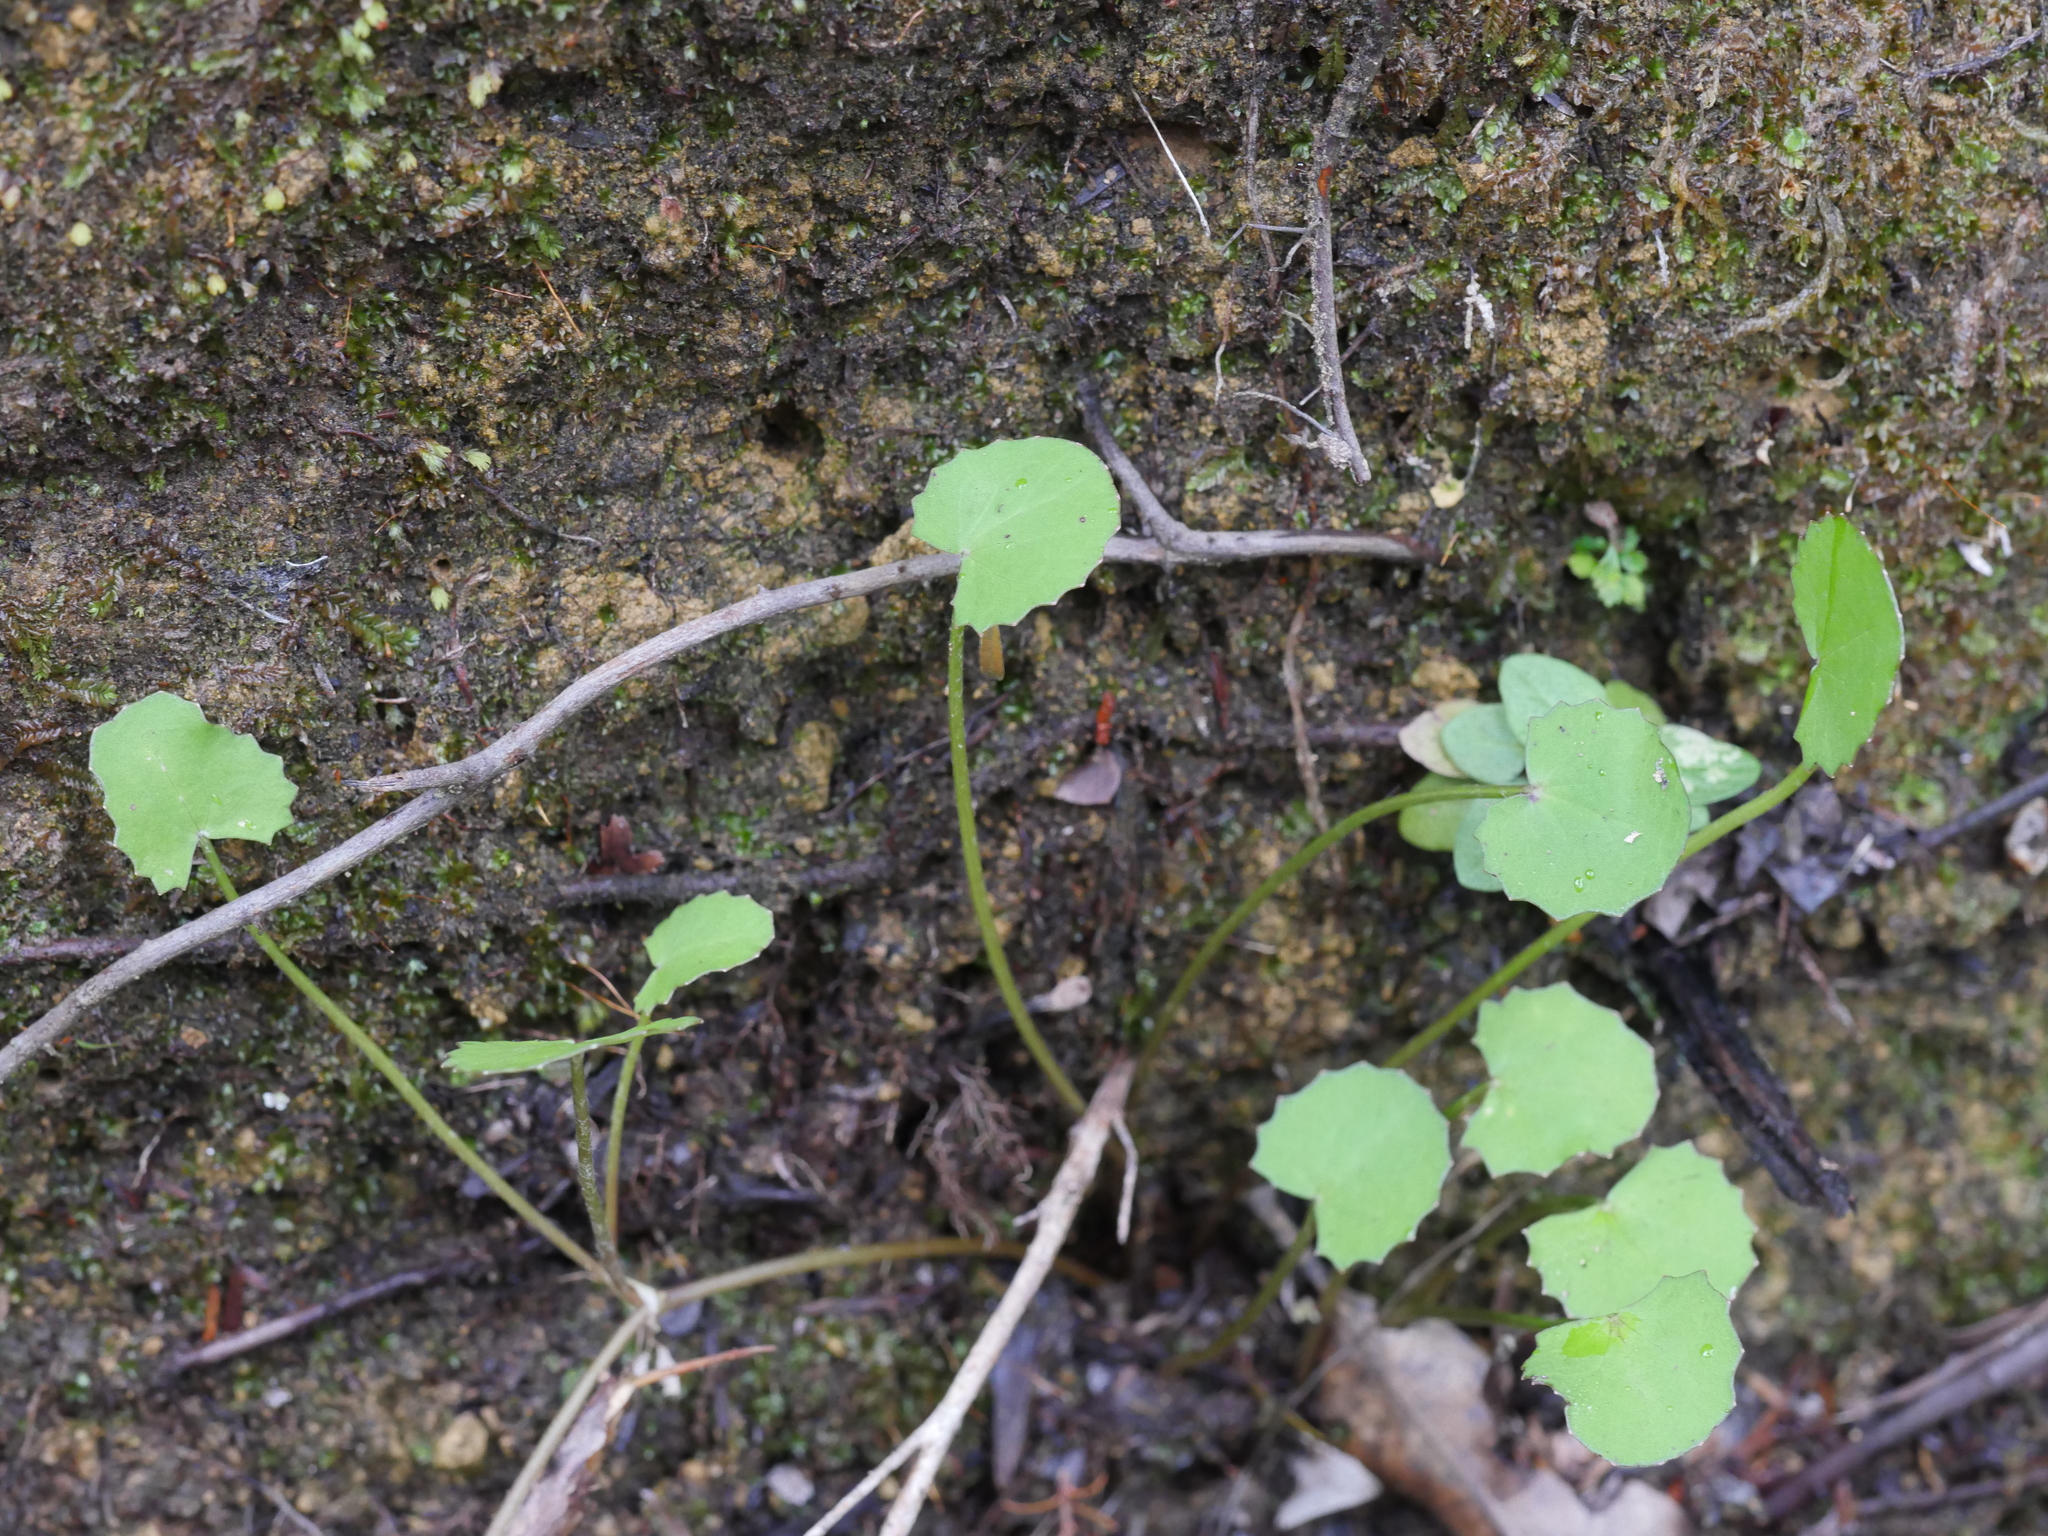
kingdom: Plantae
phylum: Tracheophyta
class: Magnoliopsida
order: Apiales
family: Apiaceae
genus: Centella
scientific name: Centella uniflora
